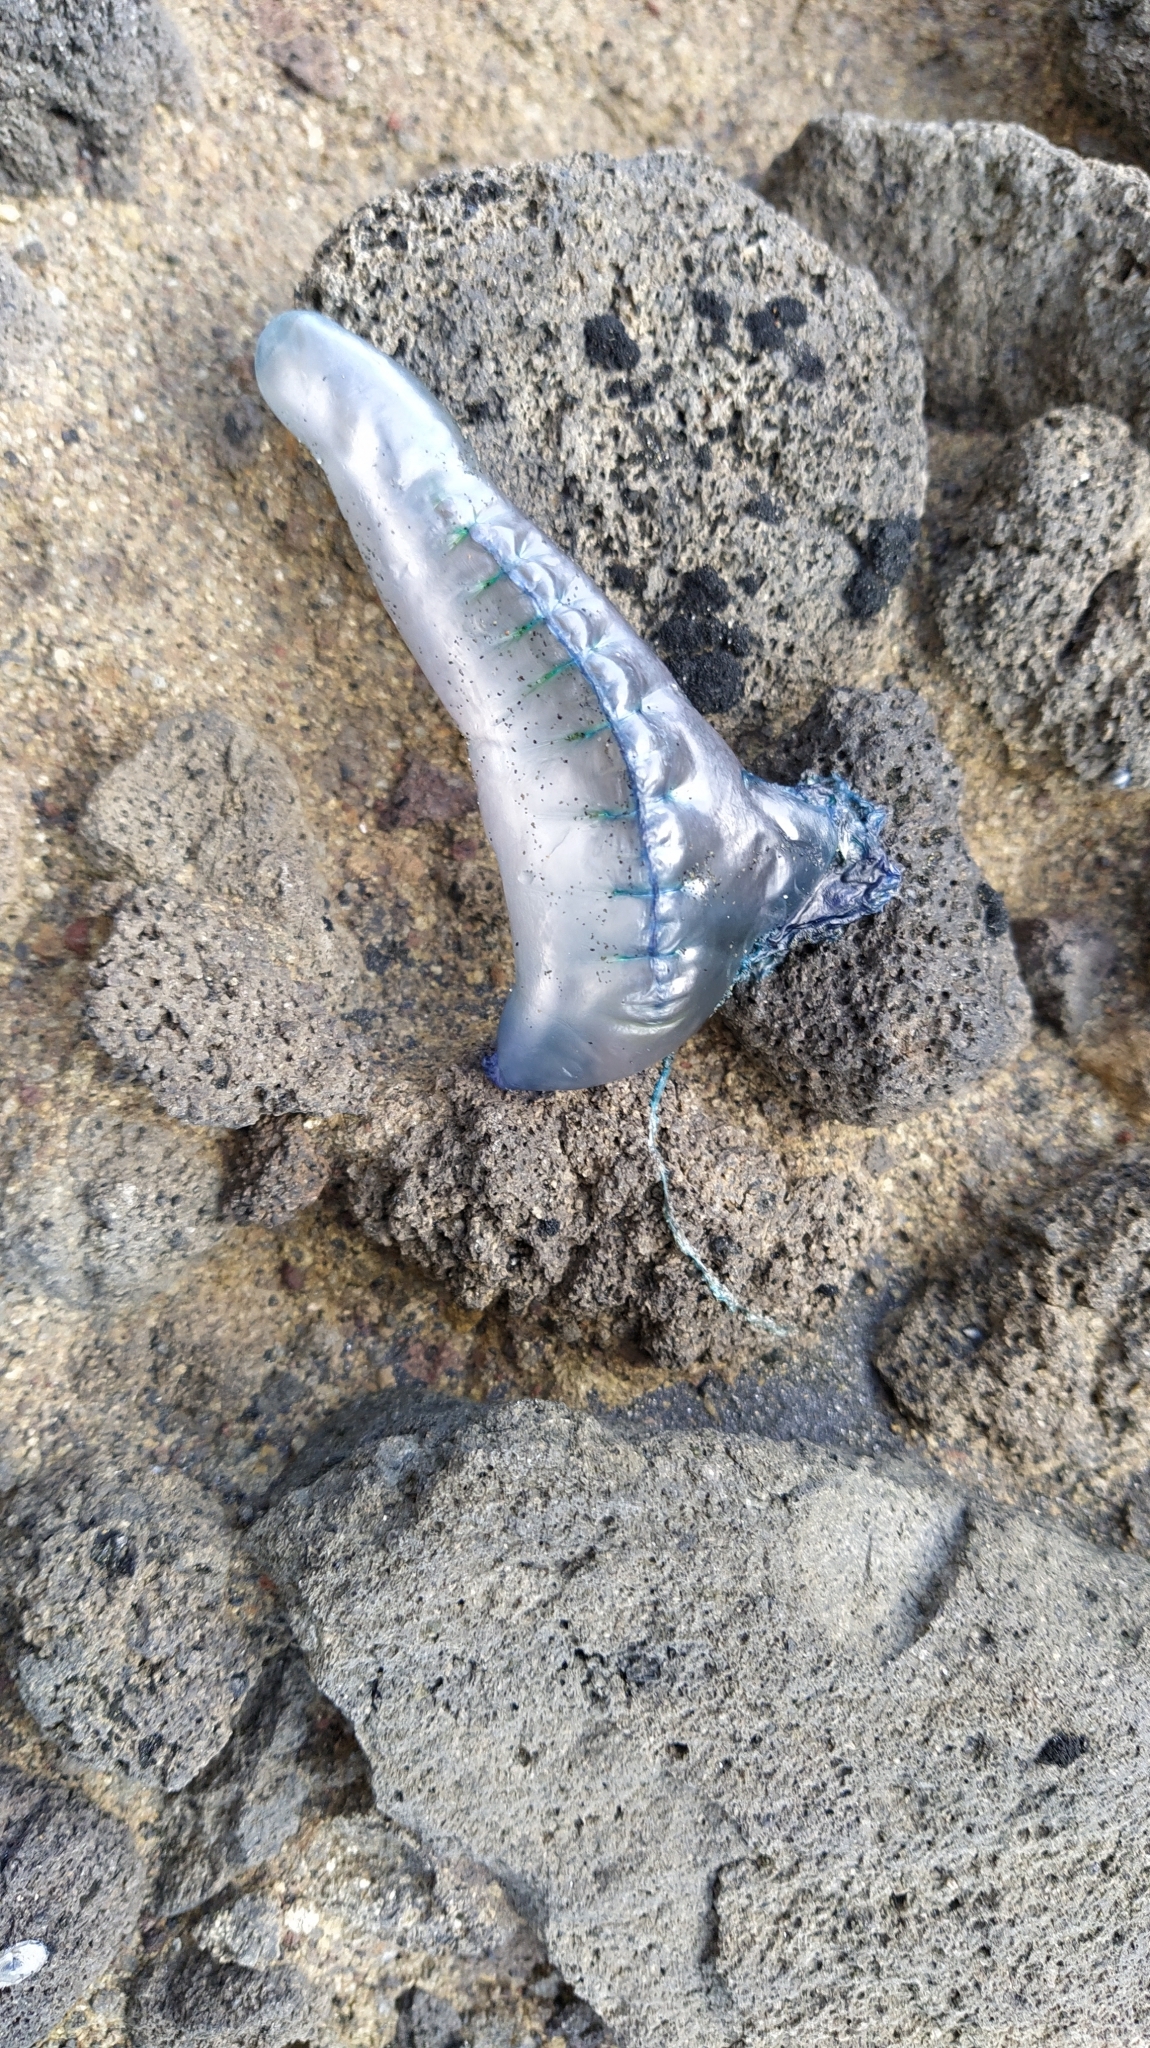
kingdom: Animalia
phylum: Cnidaria
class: Hydrozoa
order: Siphonophorae
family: Physaliidae
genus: Physalia
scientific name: Physalia physalis
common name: Portuguese man-of-war
